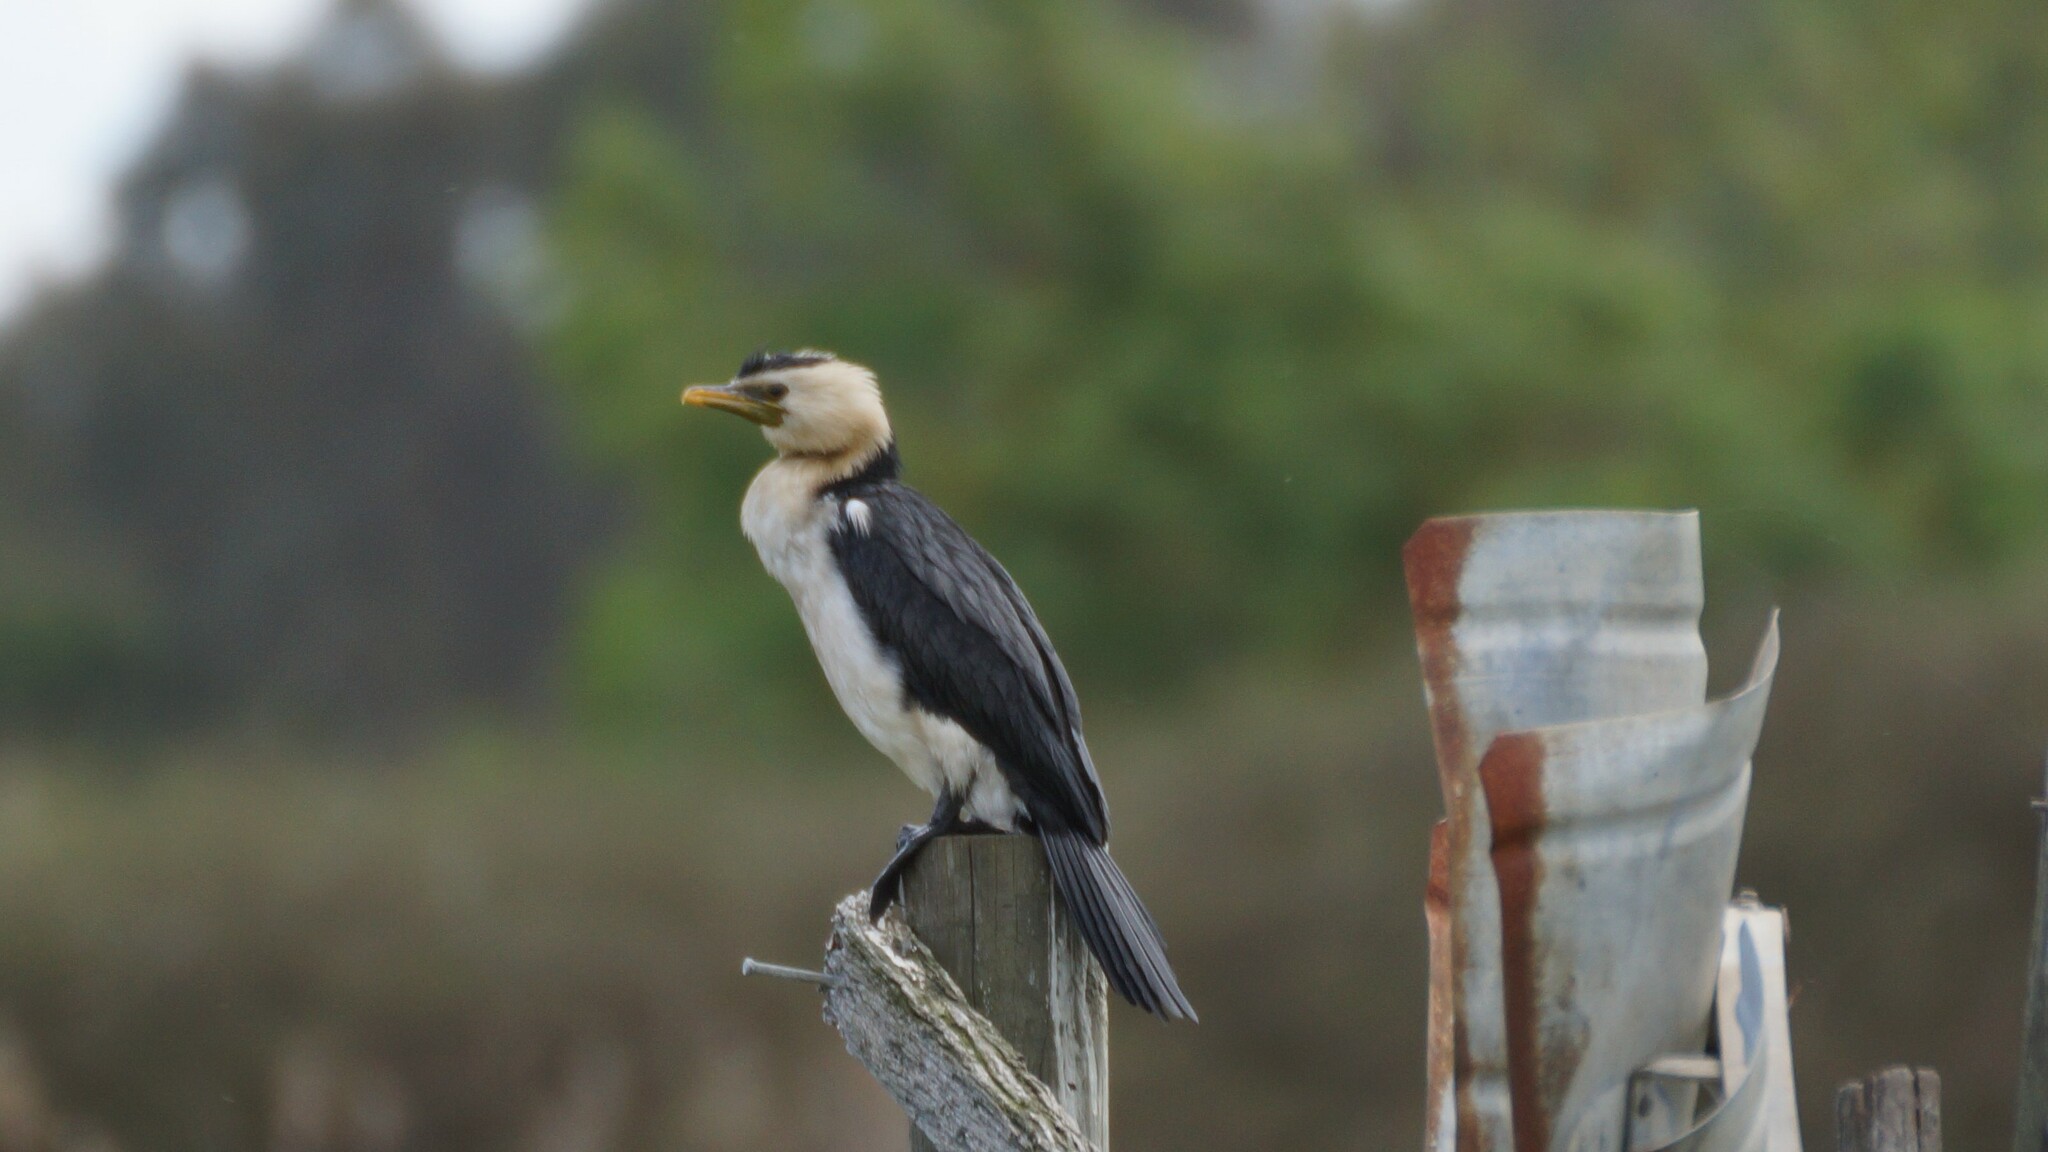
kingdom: Animalia
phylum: Chordata
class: Aves
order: Suliformes
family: Phalacrocoracidae
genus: Microcarbo
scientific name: Microcarbo melanoleucos
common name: Little pied cormorant
